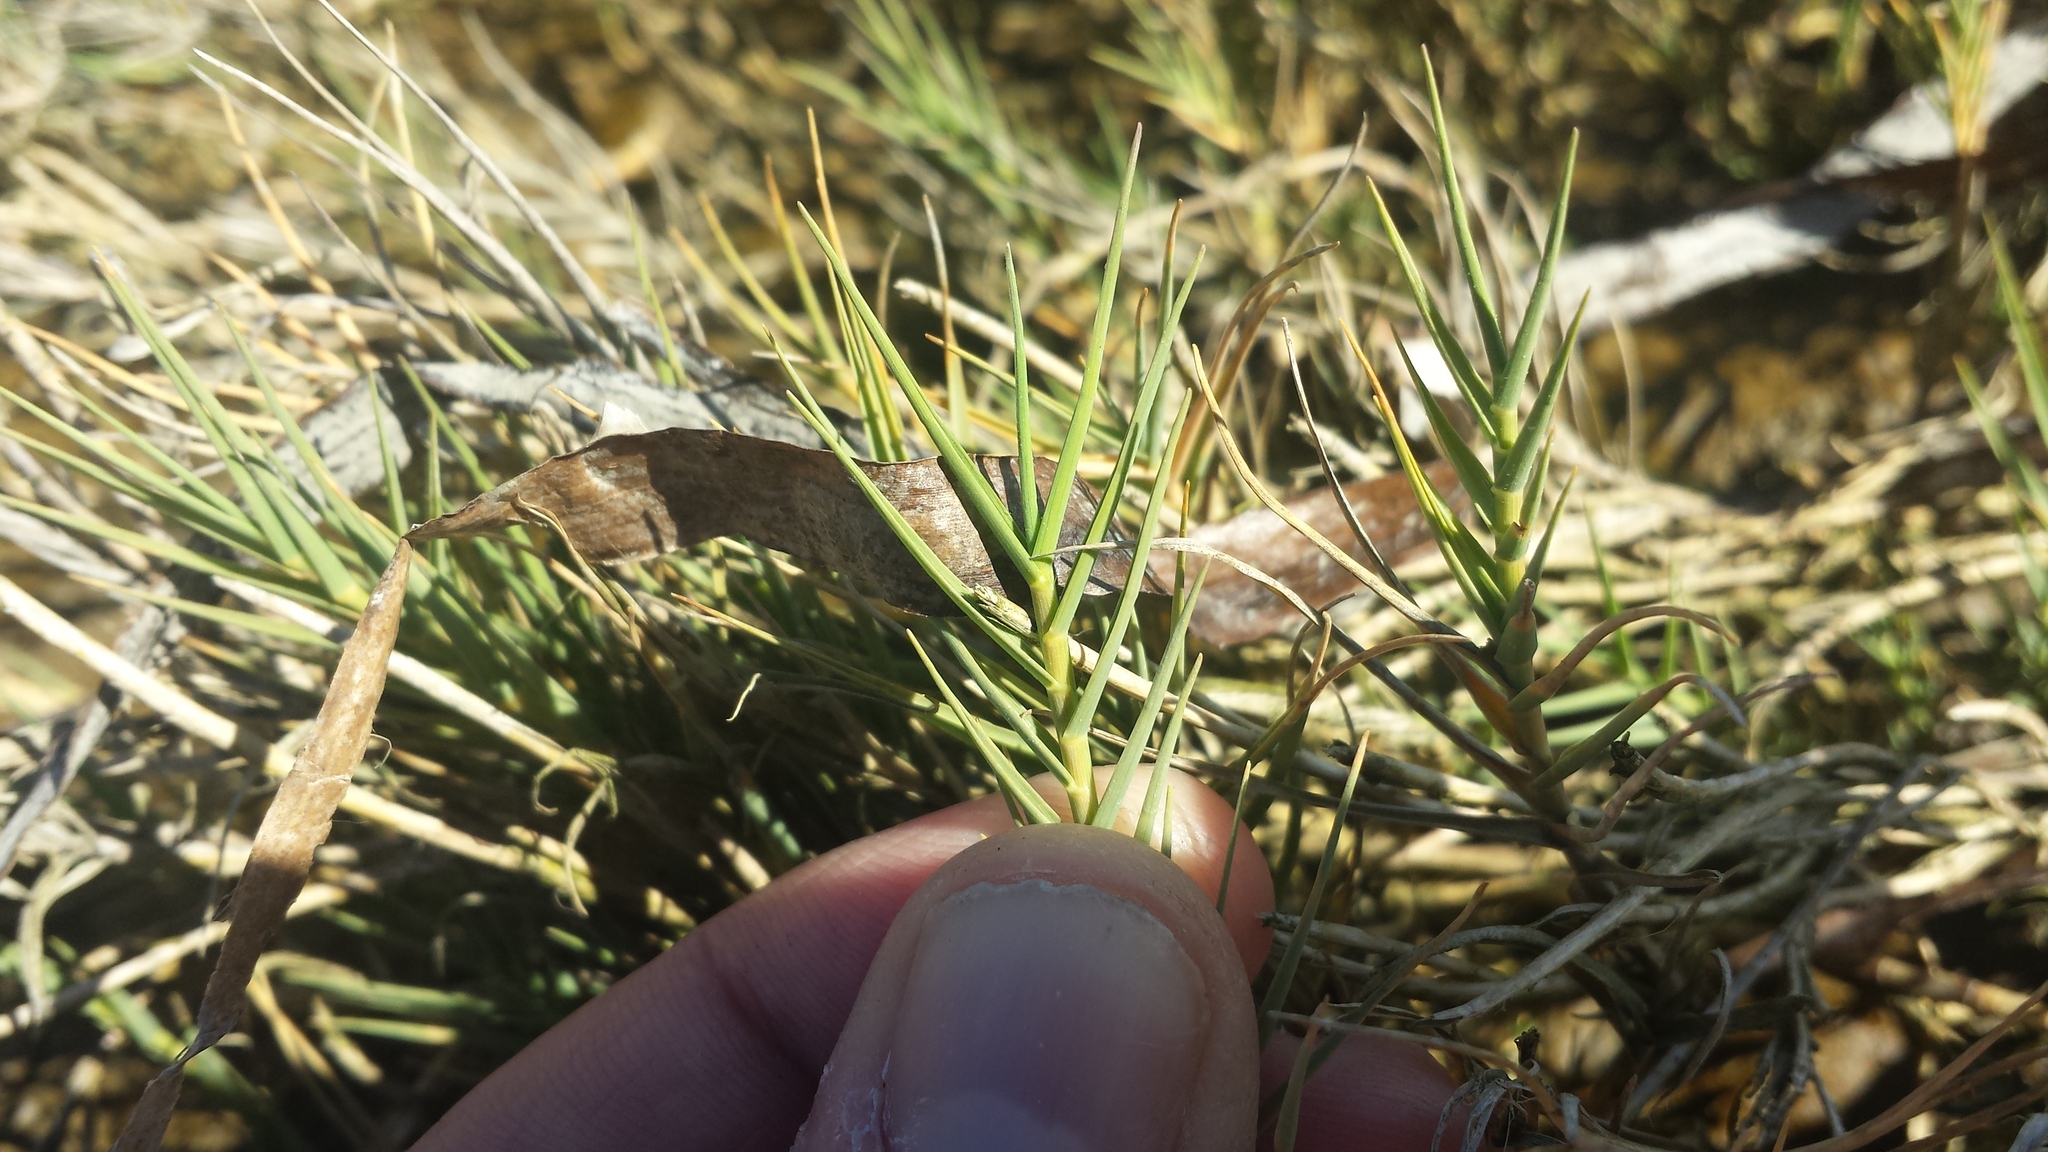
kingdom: Plantae
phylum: Tracheophyta
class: Liliopsida
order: Poales
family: Poaceae
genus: Distichlis
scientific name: Distichlis spicata
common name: Saltgrass
